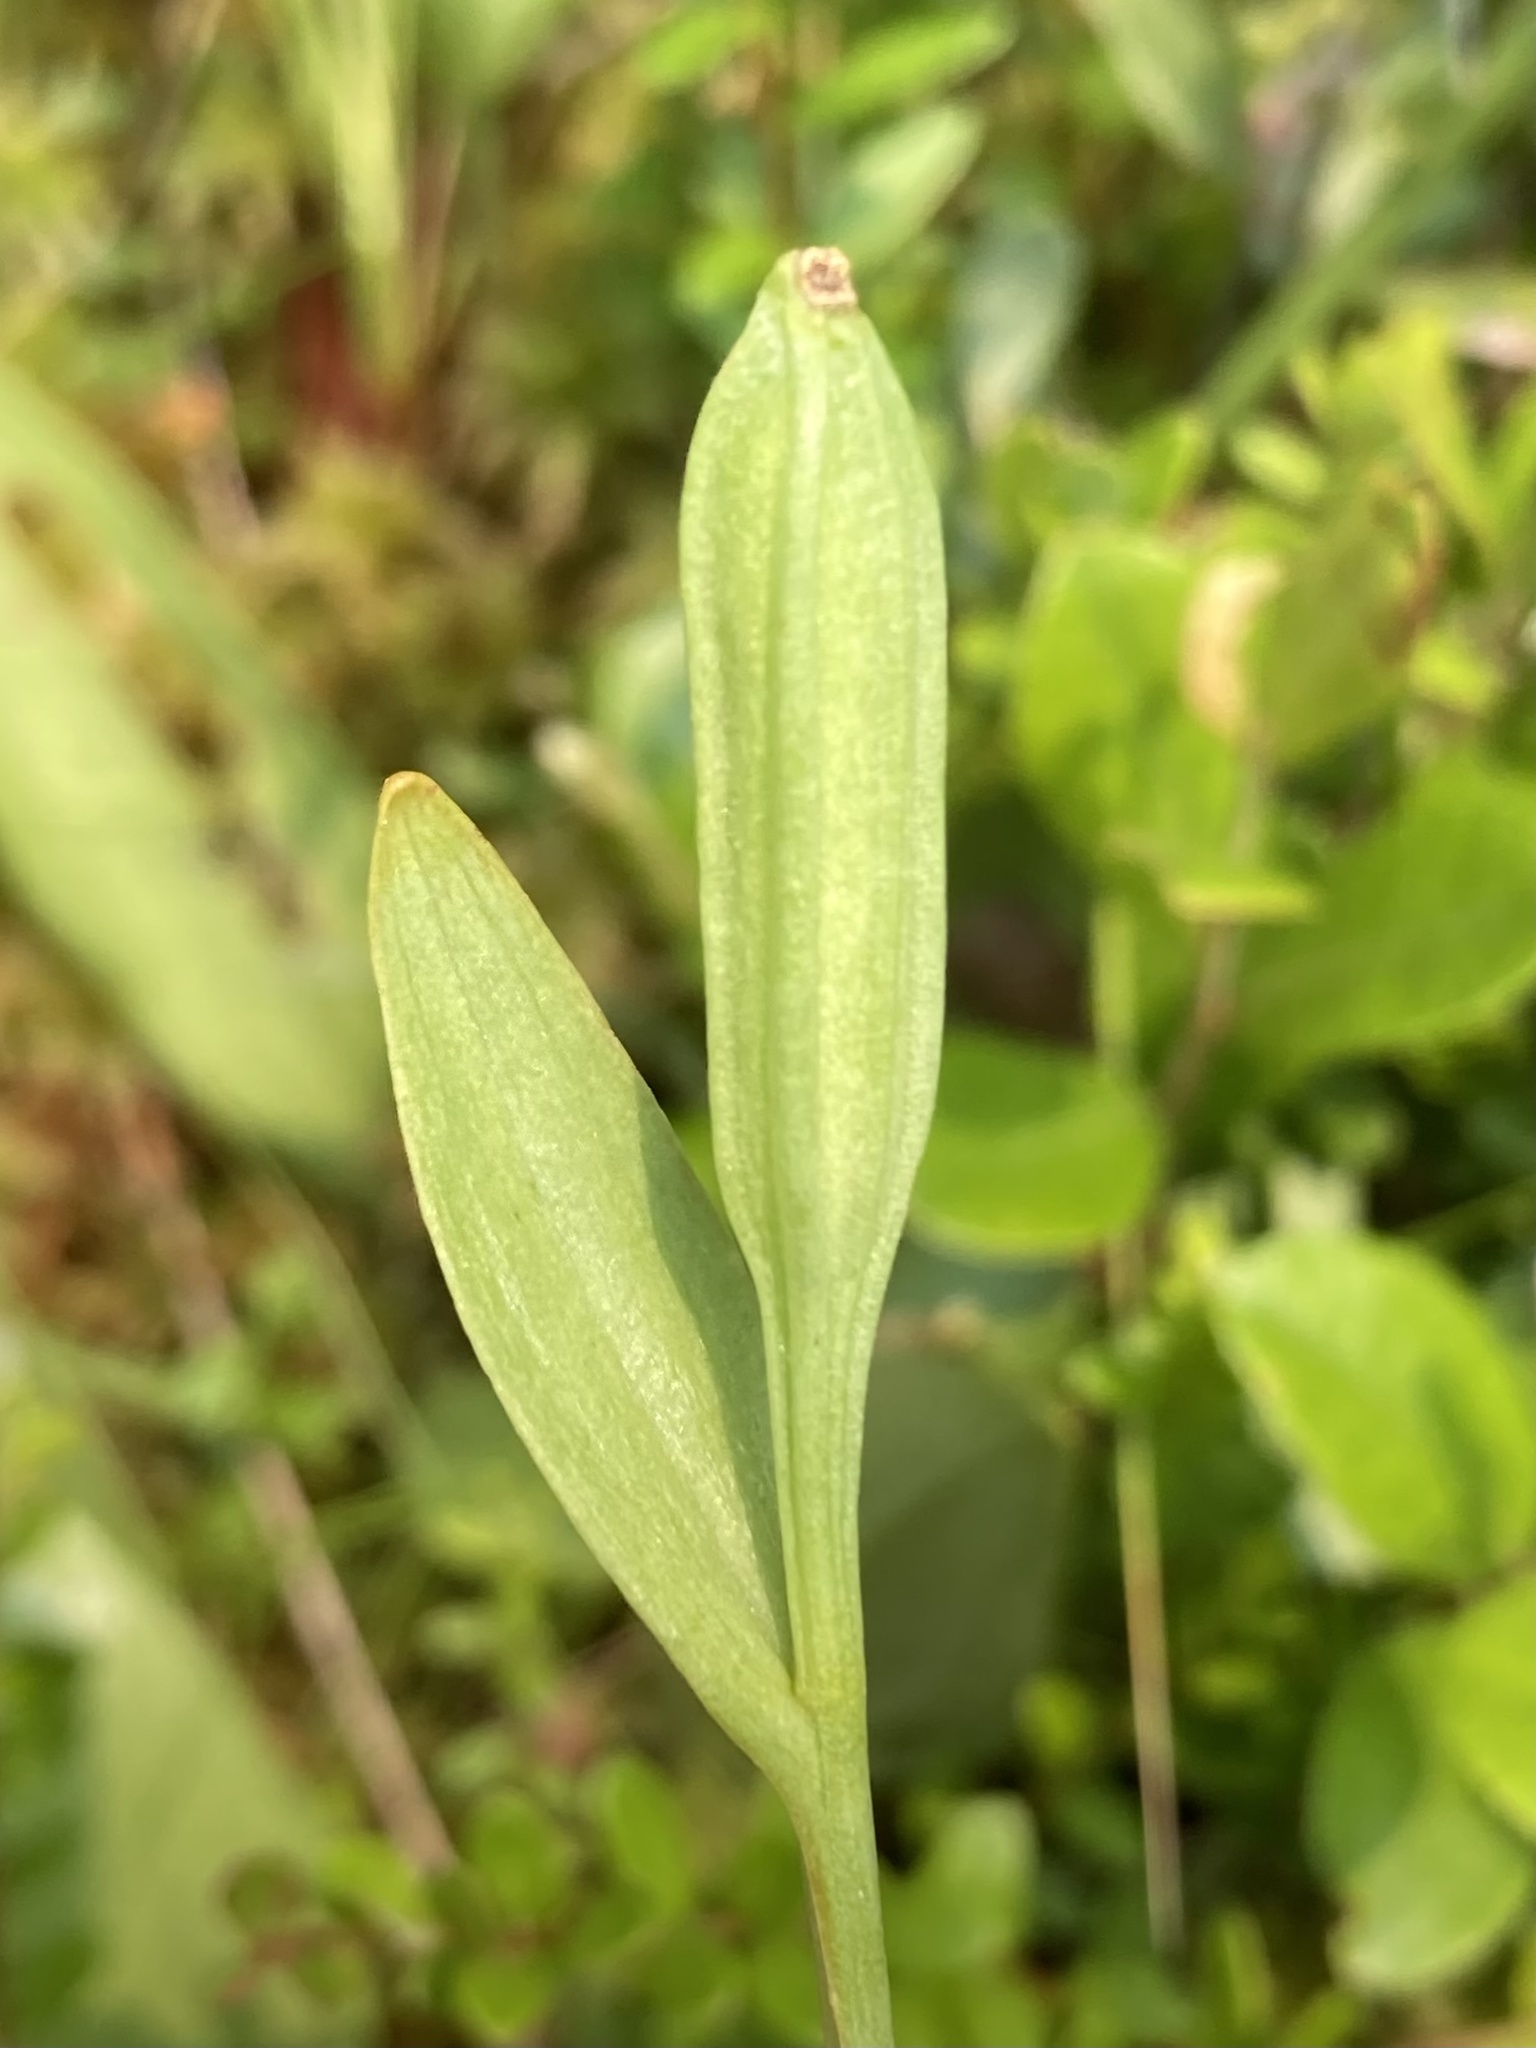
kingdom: Plantae
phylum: Tracheophyta
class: Liliopsida
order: Asparagales
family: Orchidaceae
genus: Pogonia
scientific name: Pogonia ophioglossoides
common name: Rose pogonia
